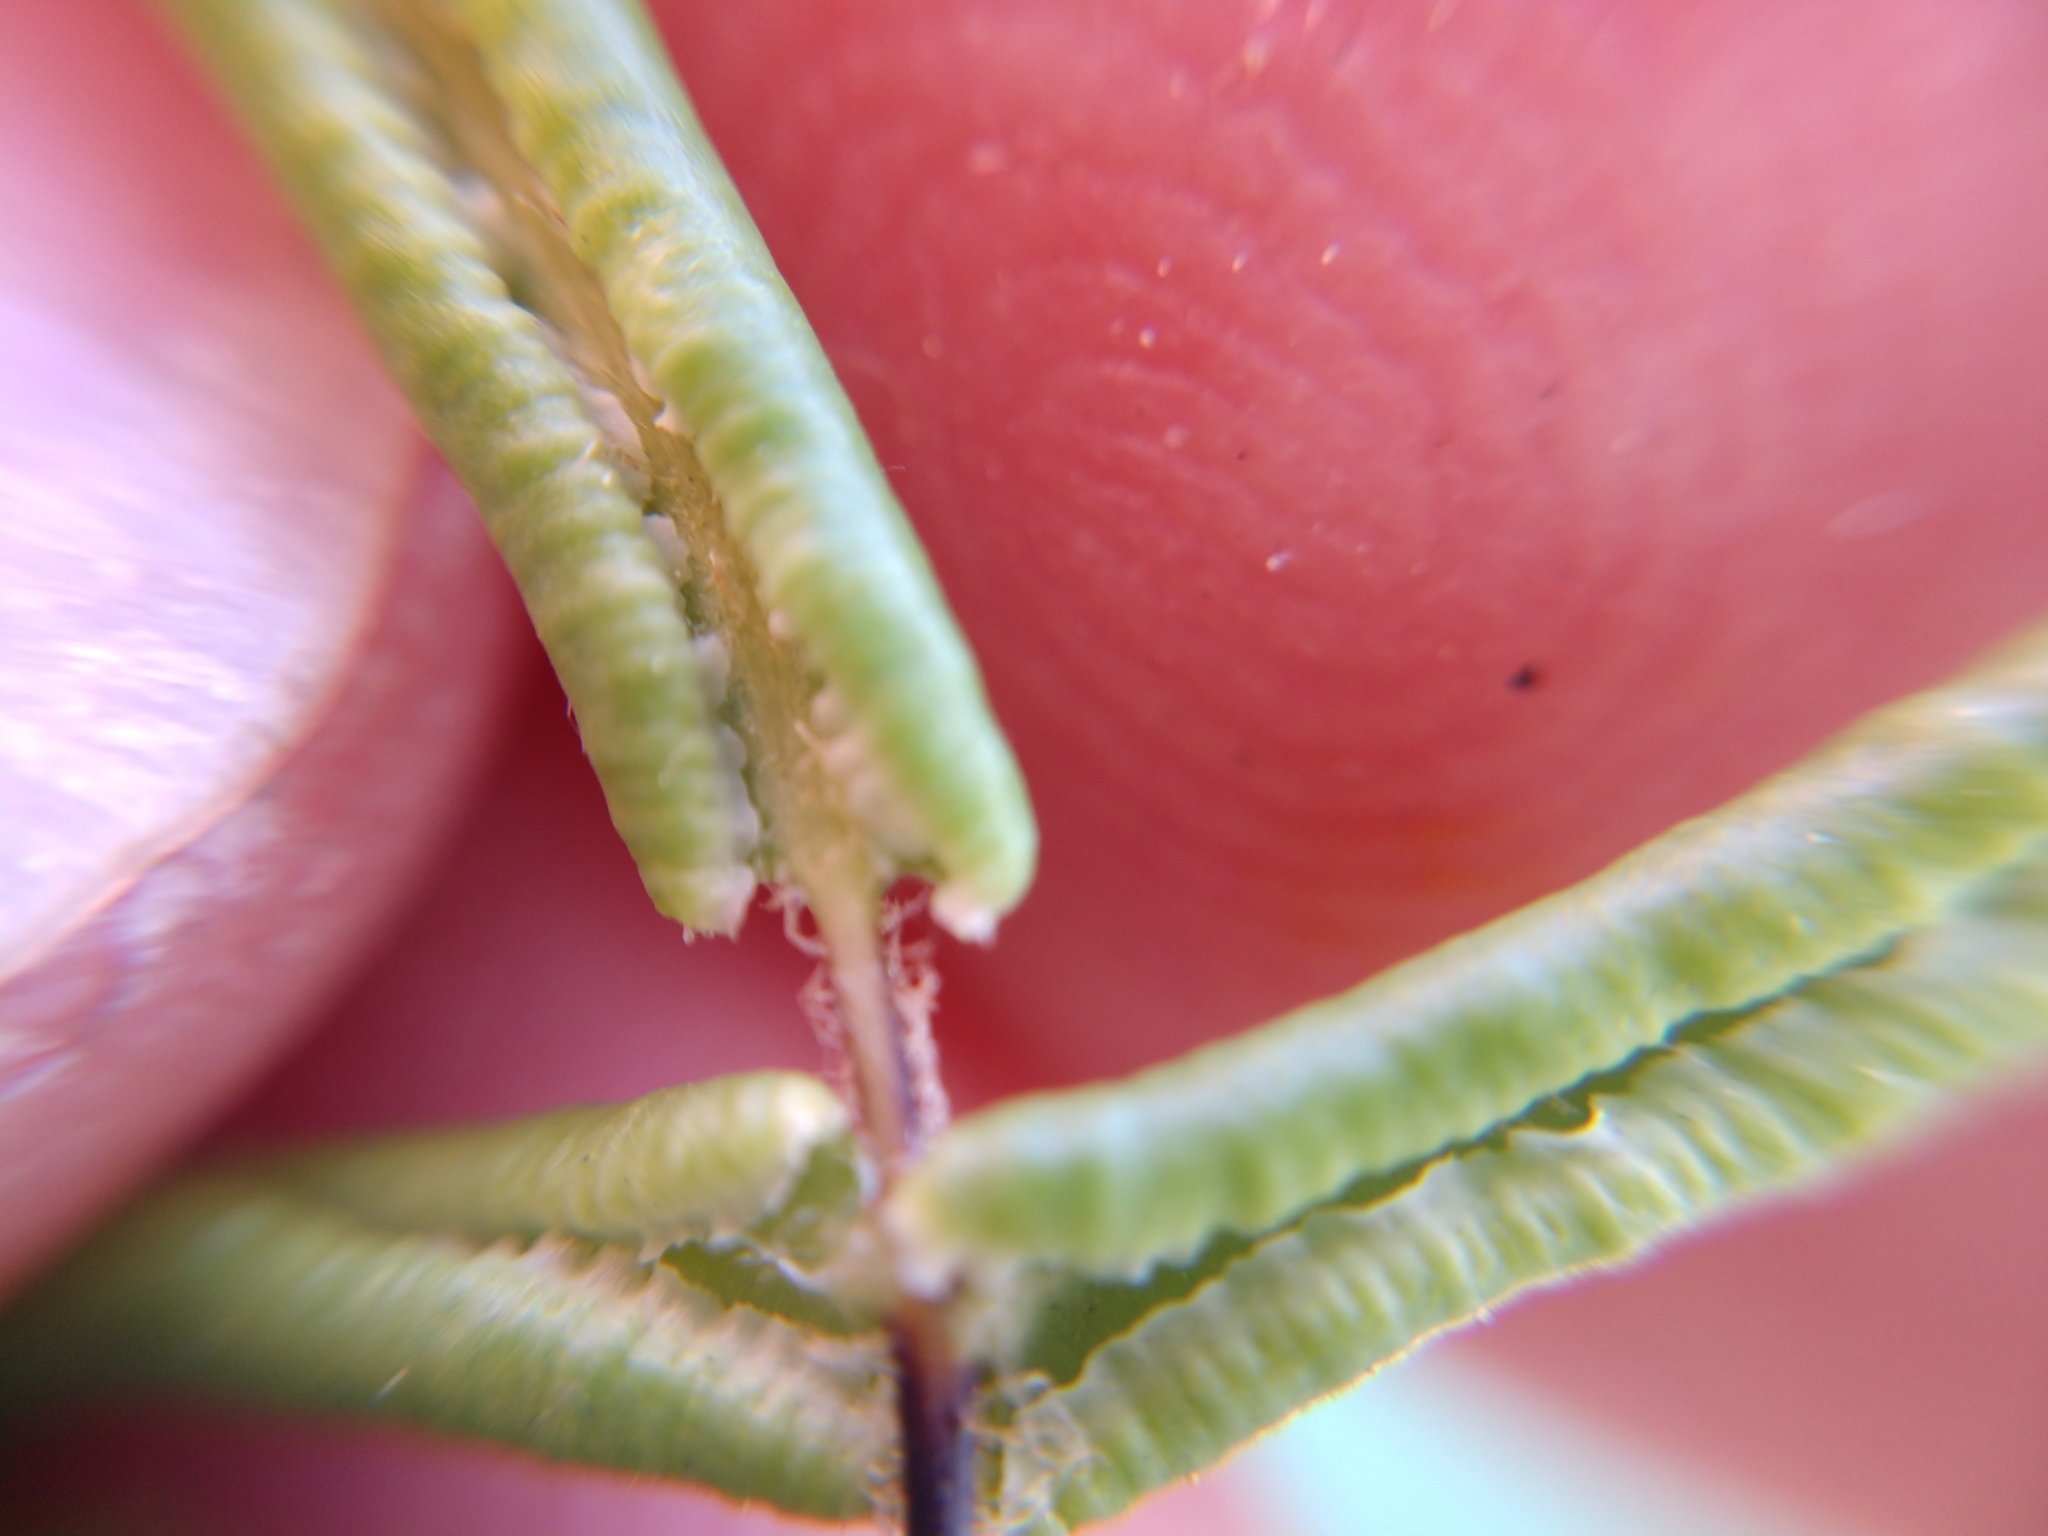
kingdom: Plantae
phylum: Tracheophyta
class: Polypodiopsida
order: Polypodiales
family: Pteridaceae
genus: Pellaea
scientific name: Pellaea atropurpurea
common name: Hairy cliffbrake
